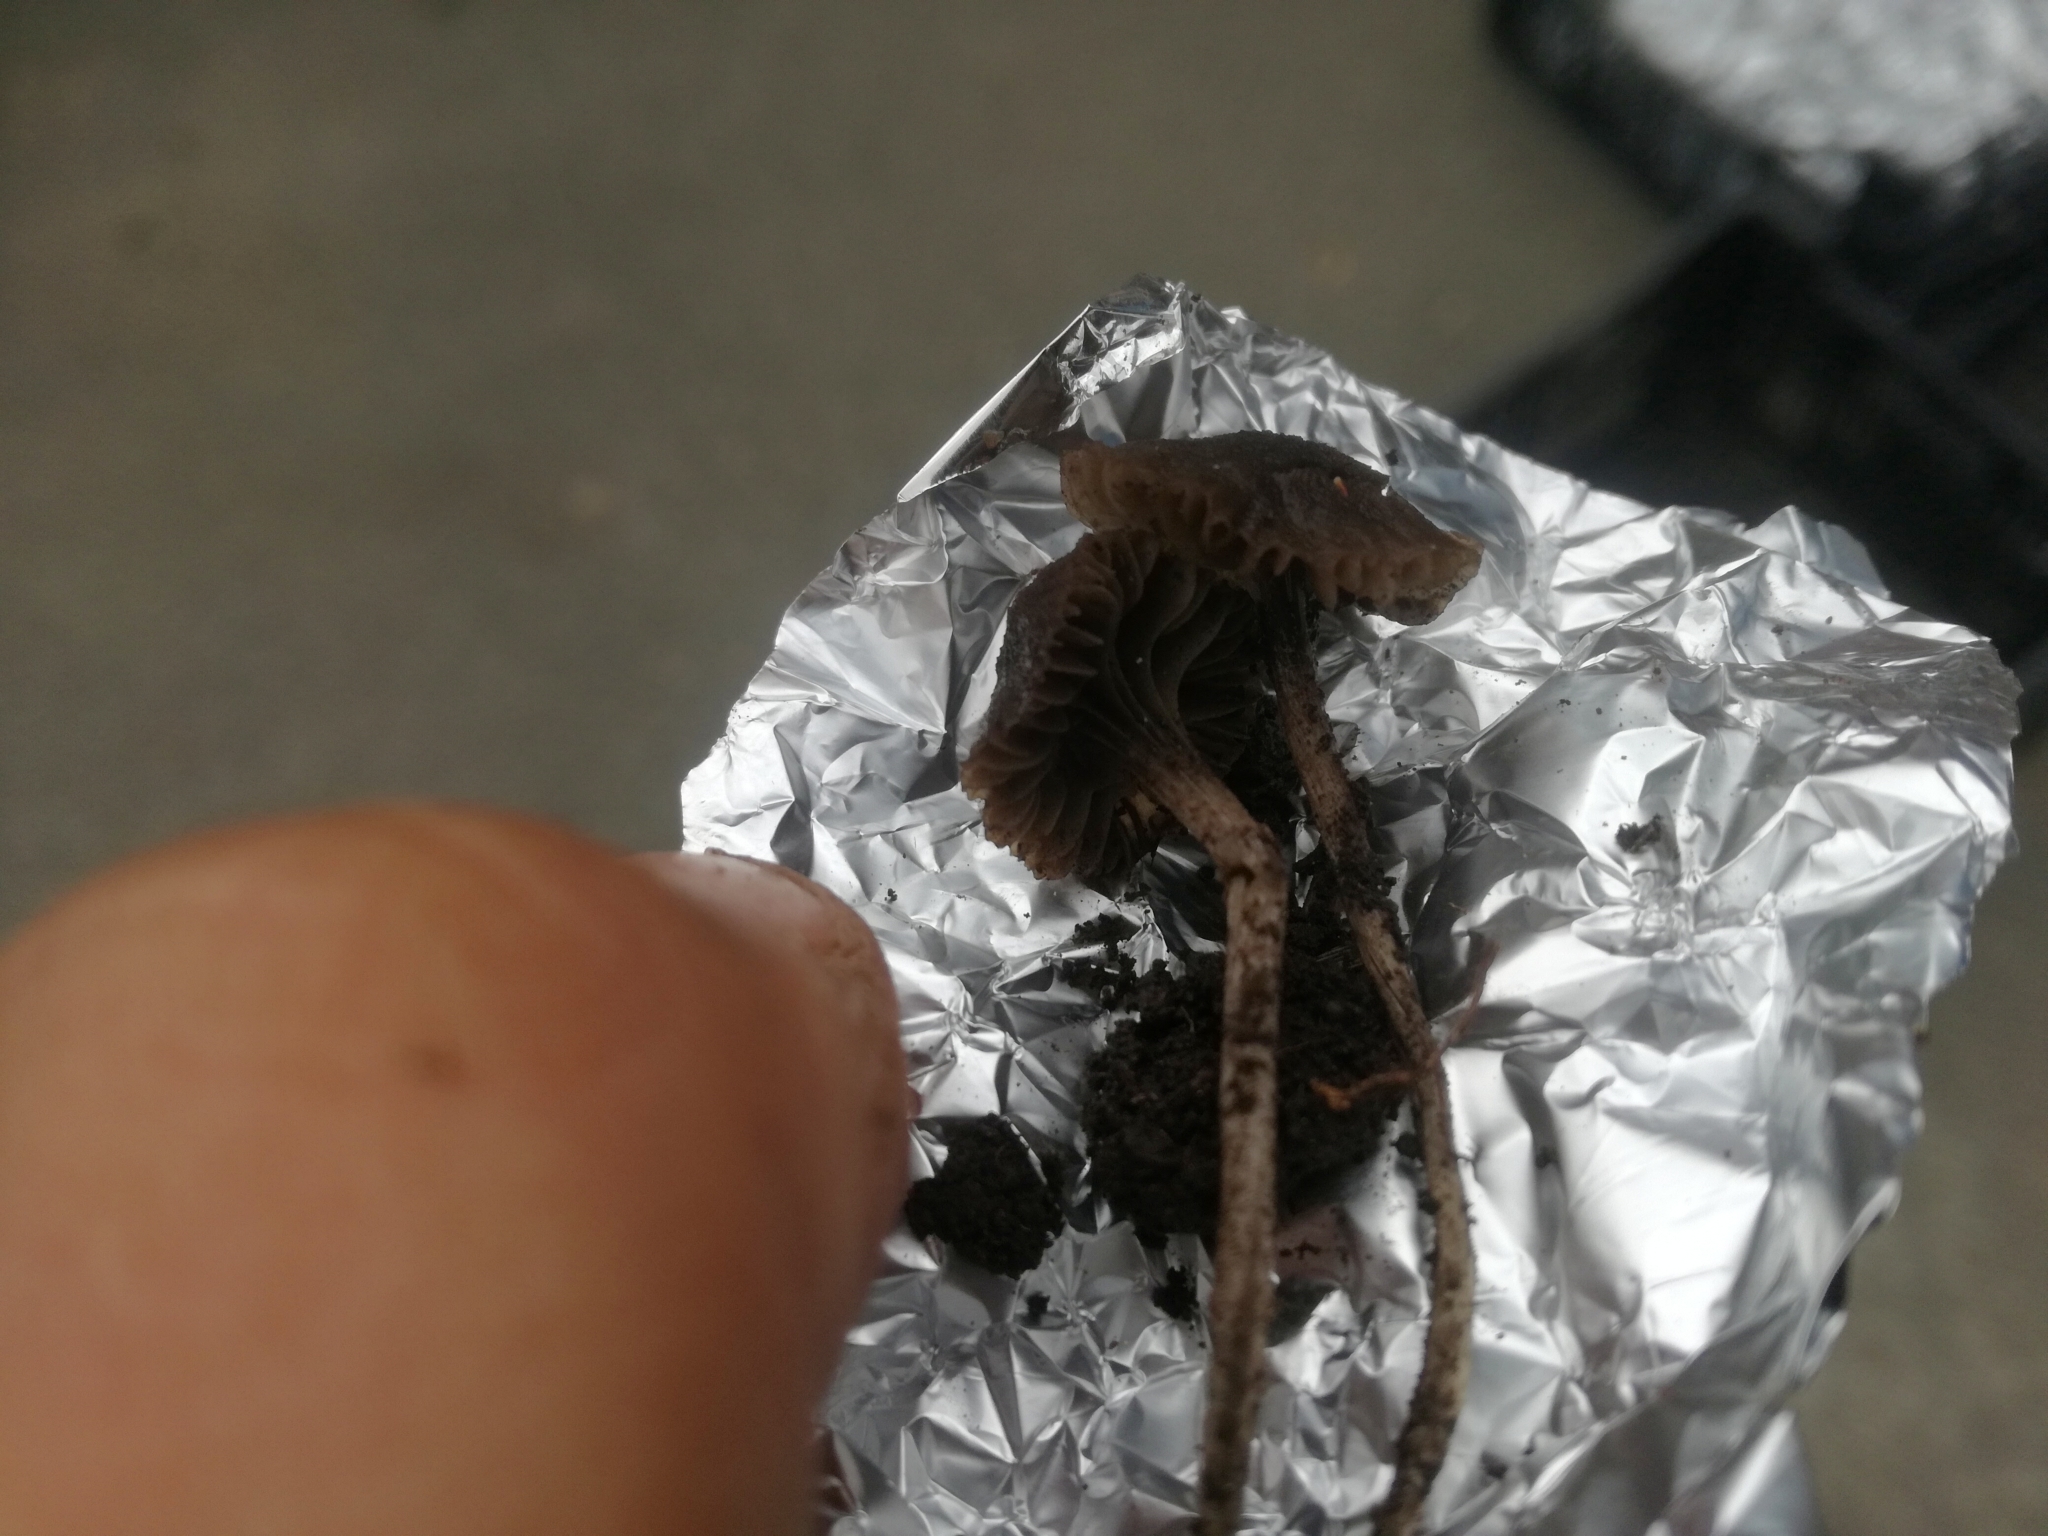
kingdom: Fungi
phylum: Basidiomycota
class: Agaricomycetes
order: Agaricales
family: Clavariaceae
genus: Hodophilus
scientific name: Hodophilus foetens
